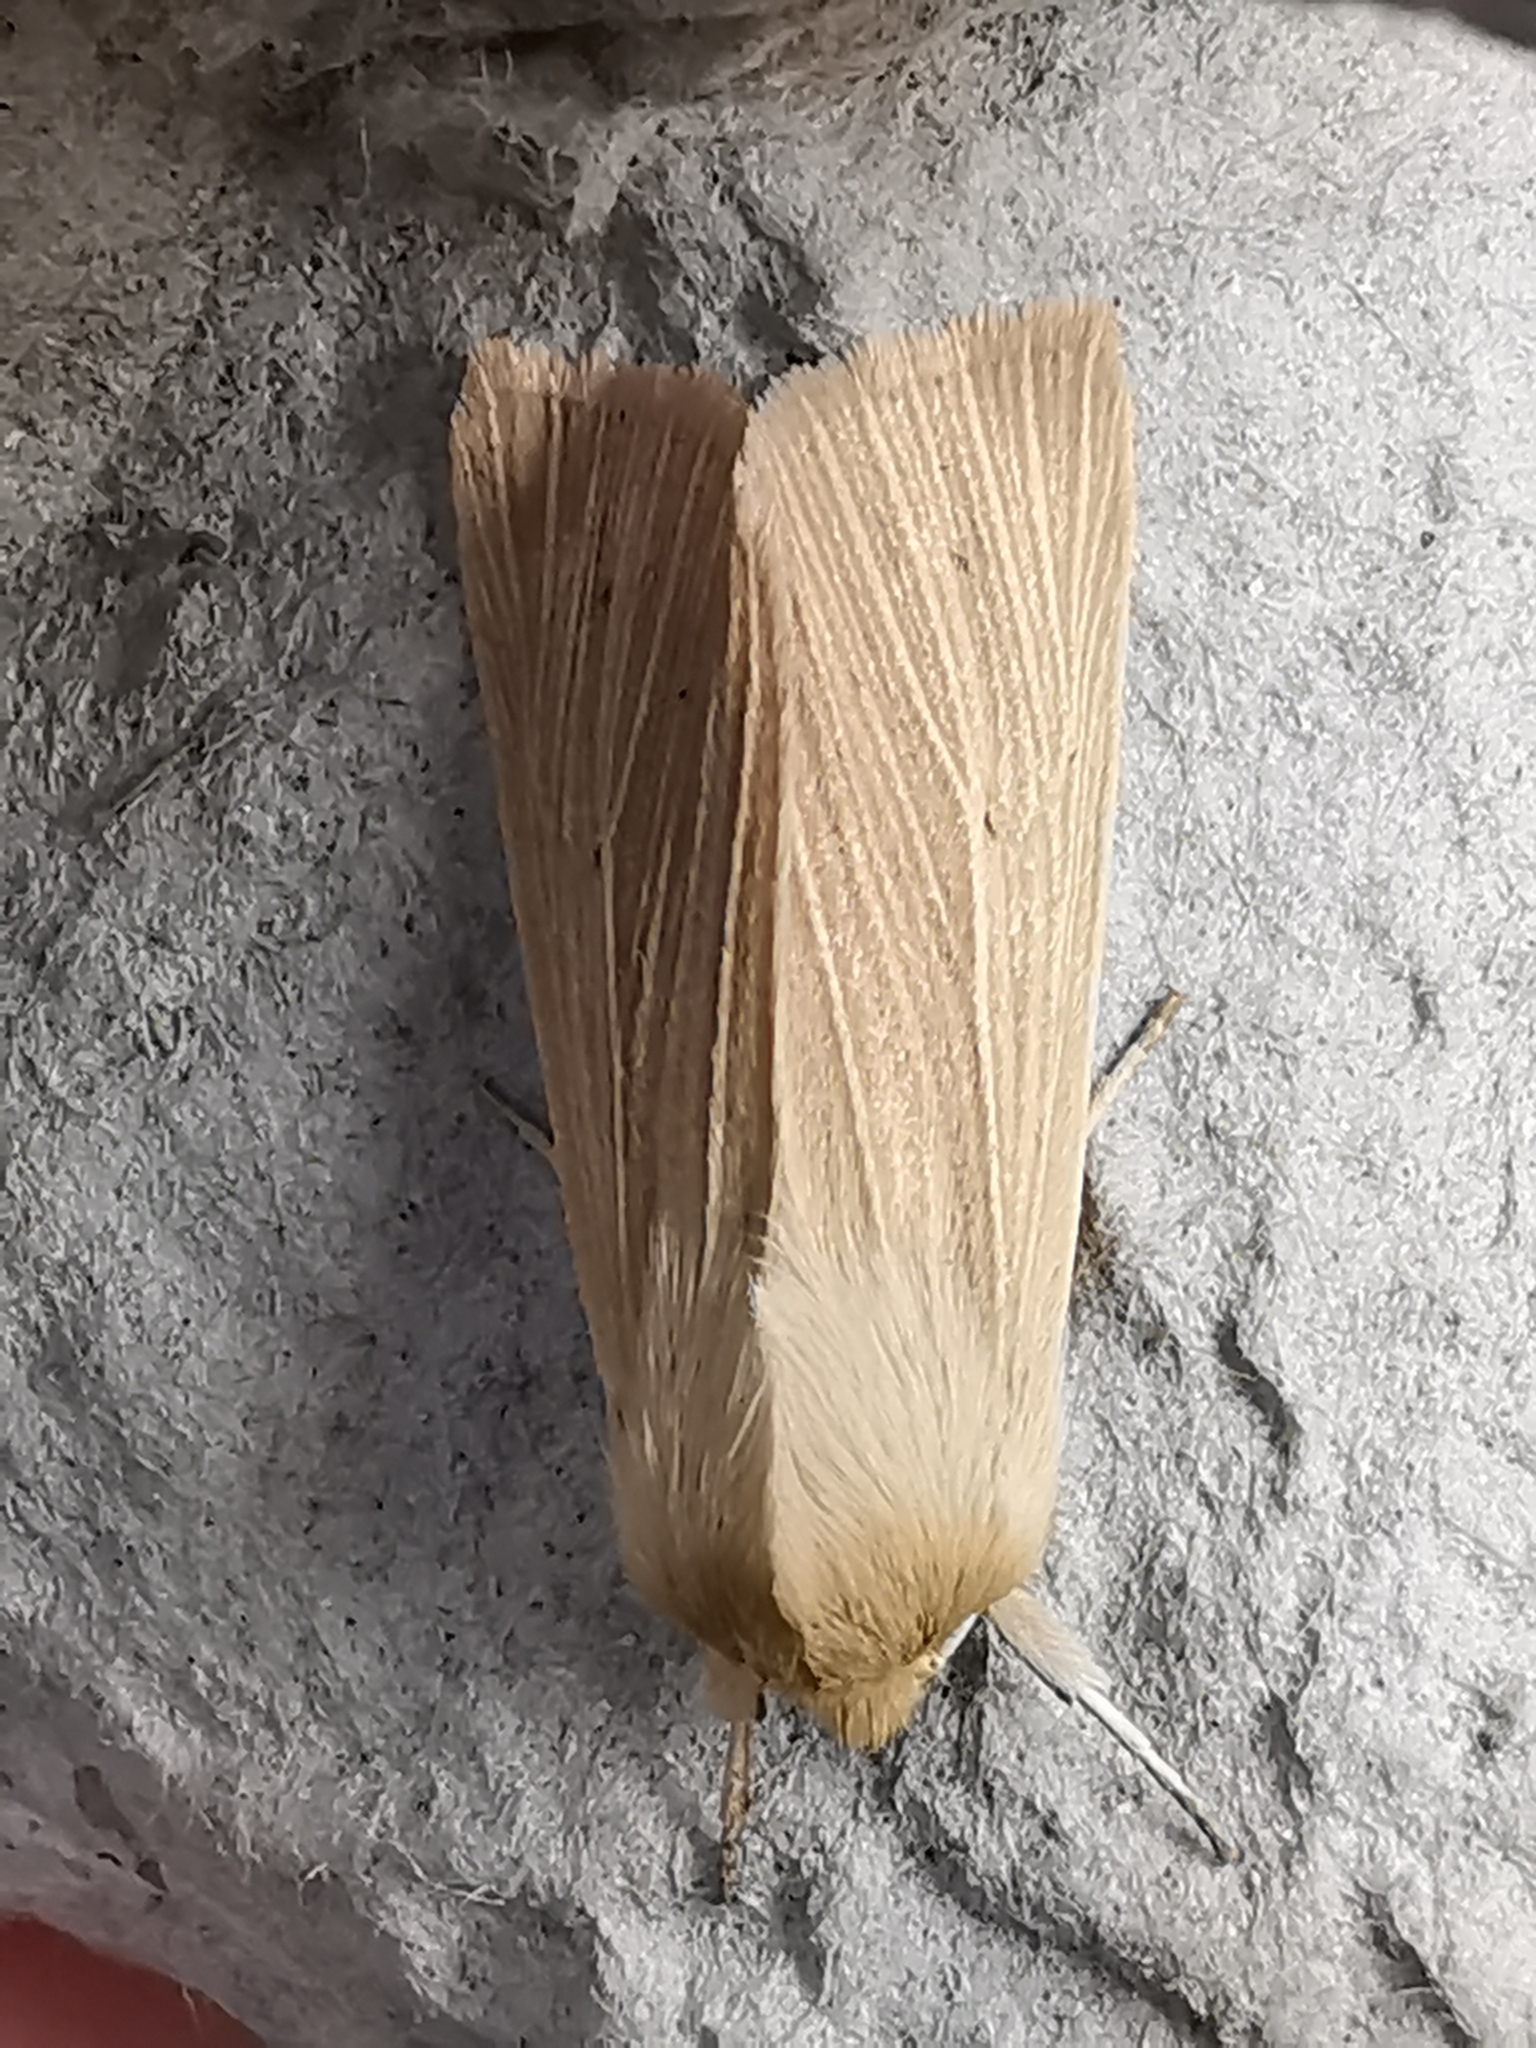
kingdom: Animalia
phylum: Arthropoda
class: Insecta
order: Lepidoptera
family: Noctuidae
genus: Mythimna
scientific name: Mythimna pallens
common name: Common wainscot
